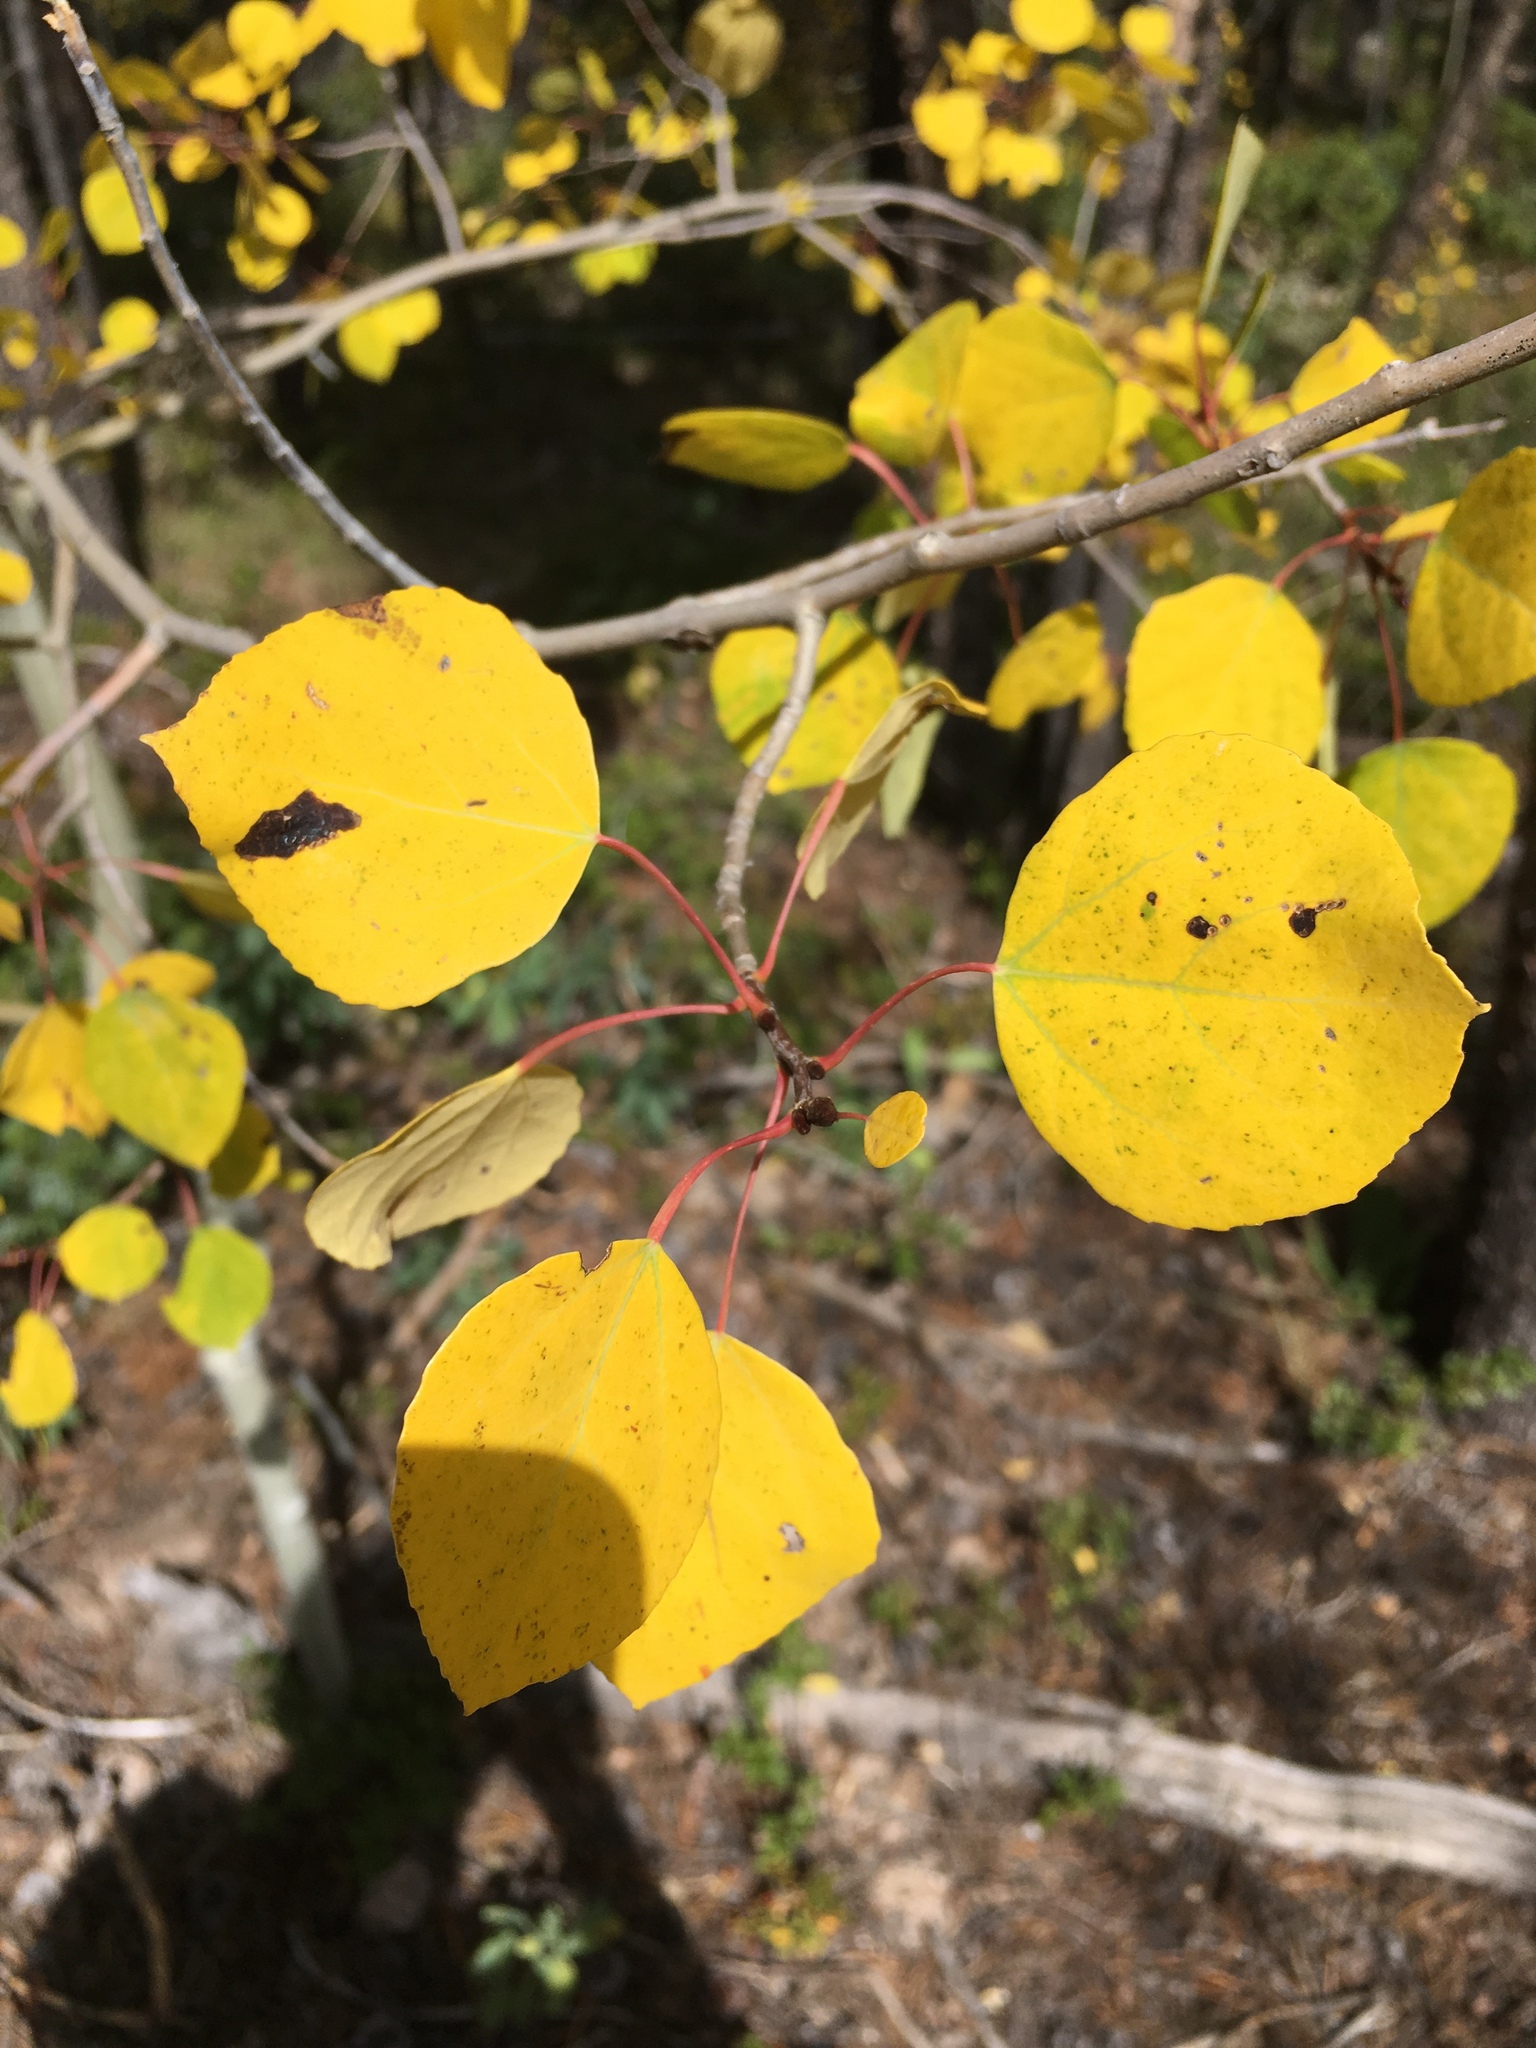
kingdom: Plantae
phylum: Tracheophyta
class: Magnoliopsida
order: Malpighiales
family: Salicaceae
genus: Populus
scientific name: Populus tremuloides
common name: Quaking aspen
